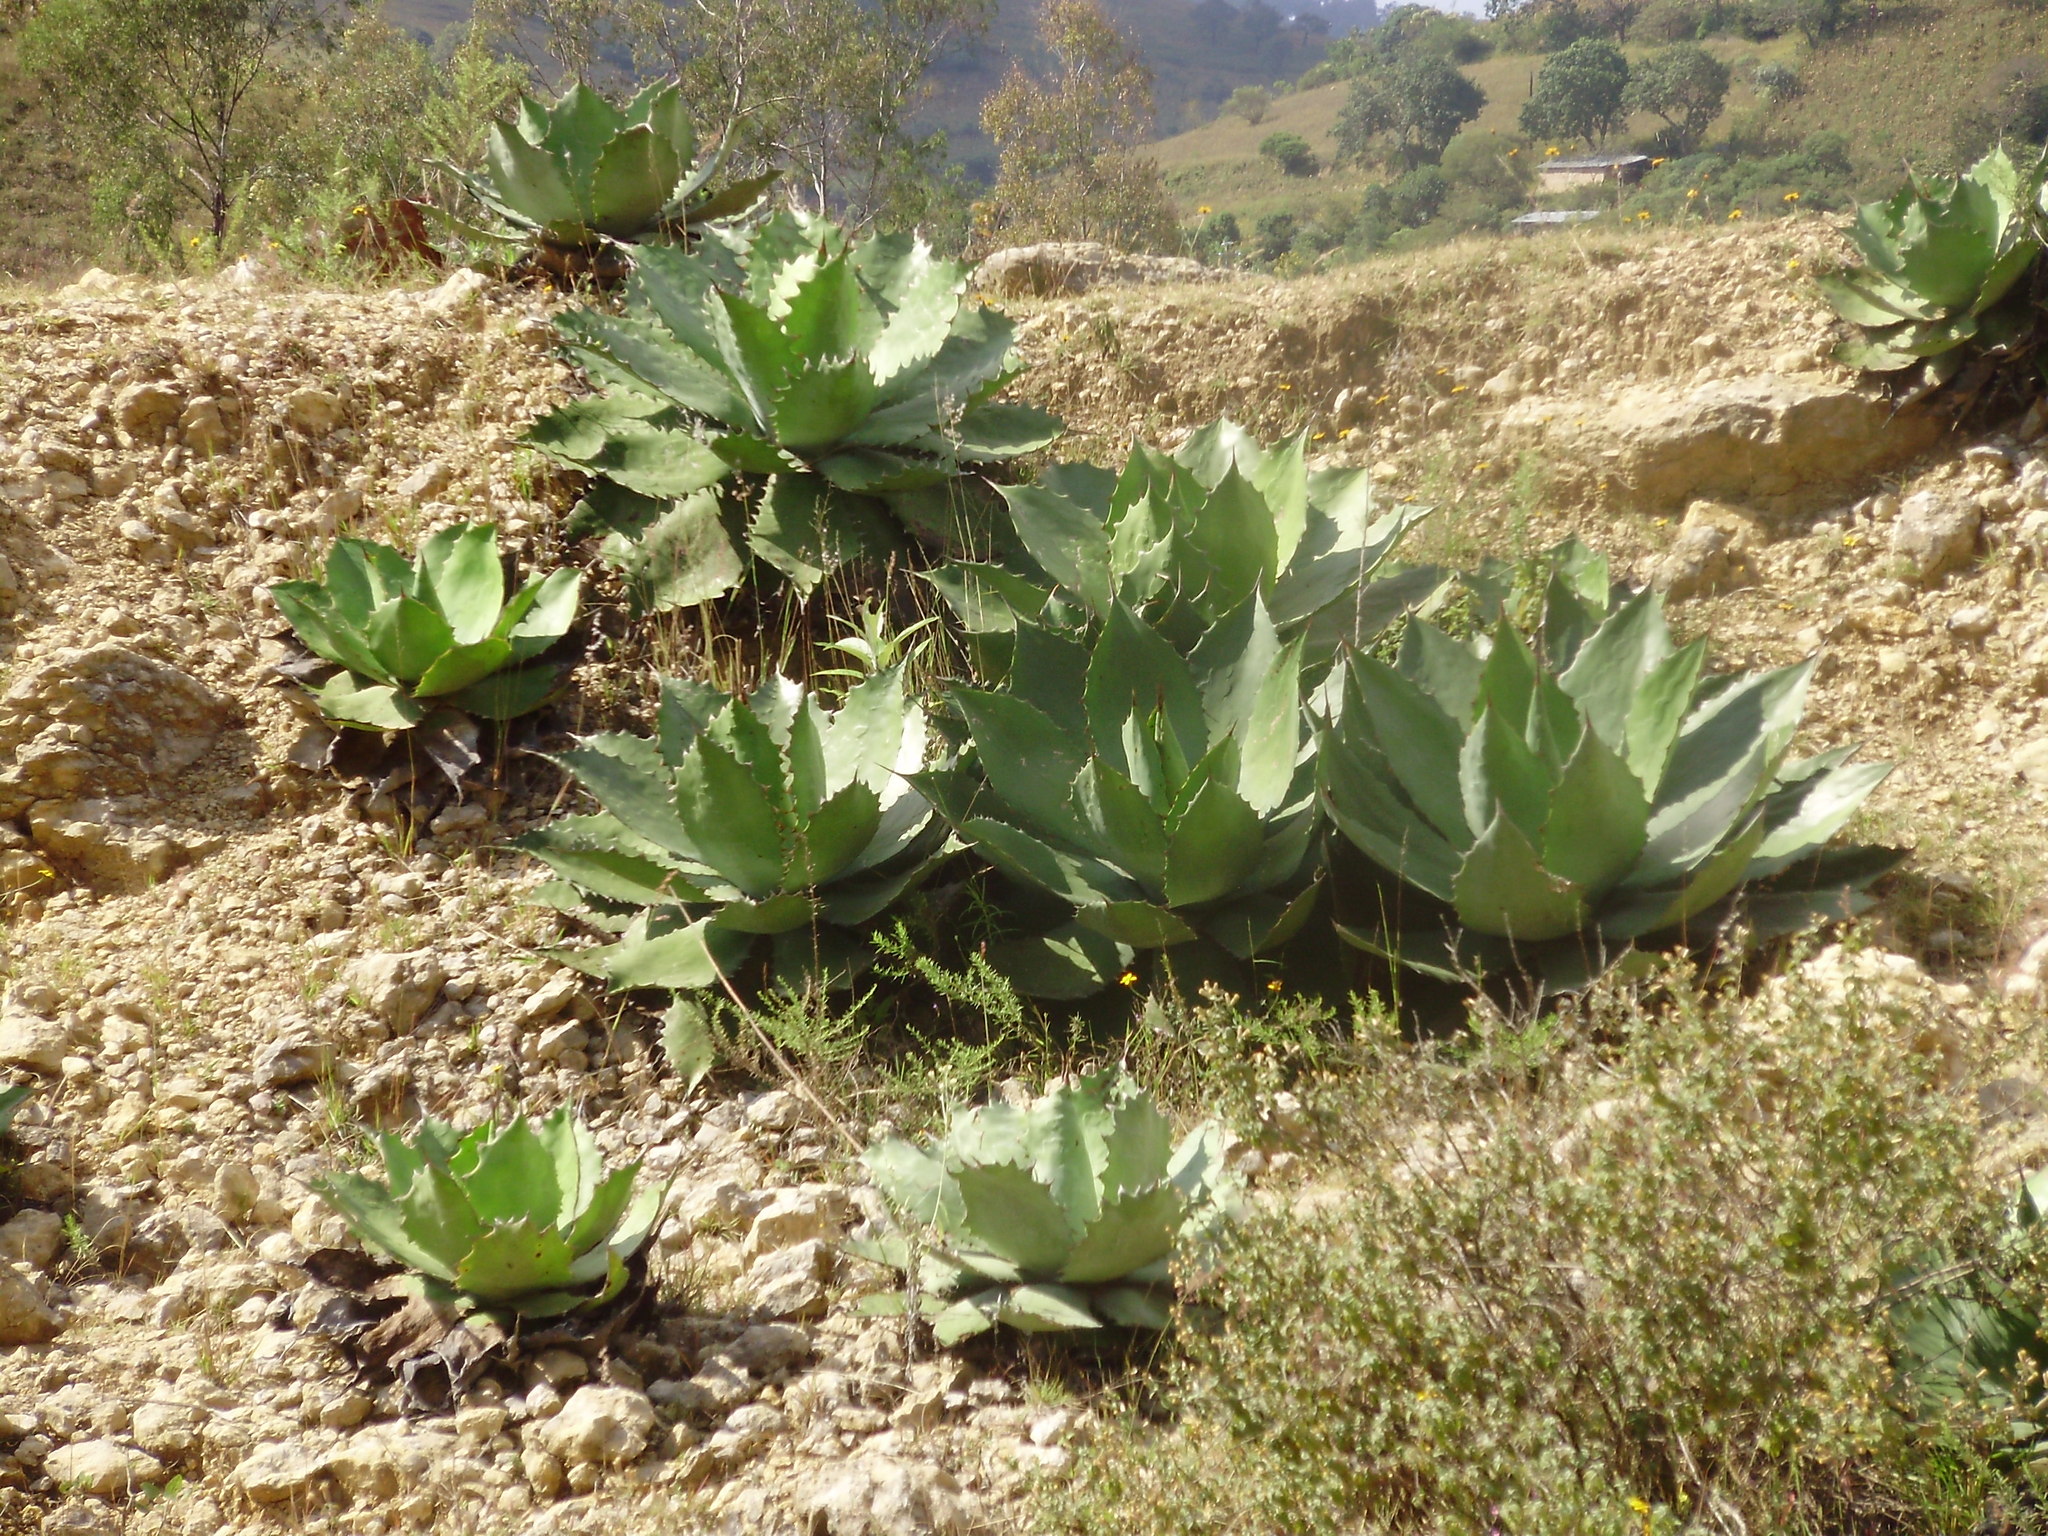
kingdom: Plantae
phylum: Tracheophyta
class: Liliopsida
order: Asparagales
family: Asparagaceae
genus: Agave
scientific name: Agave cupreata
